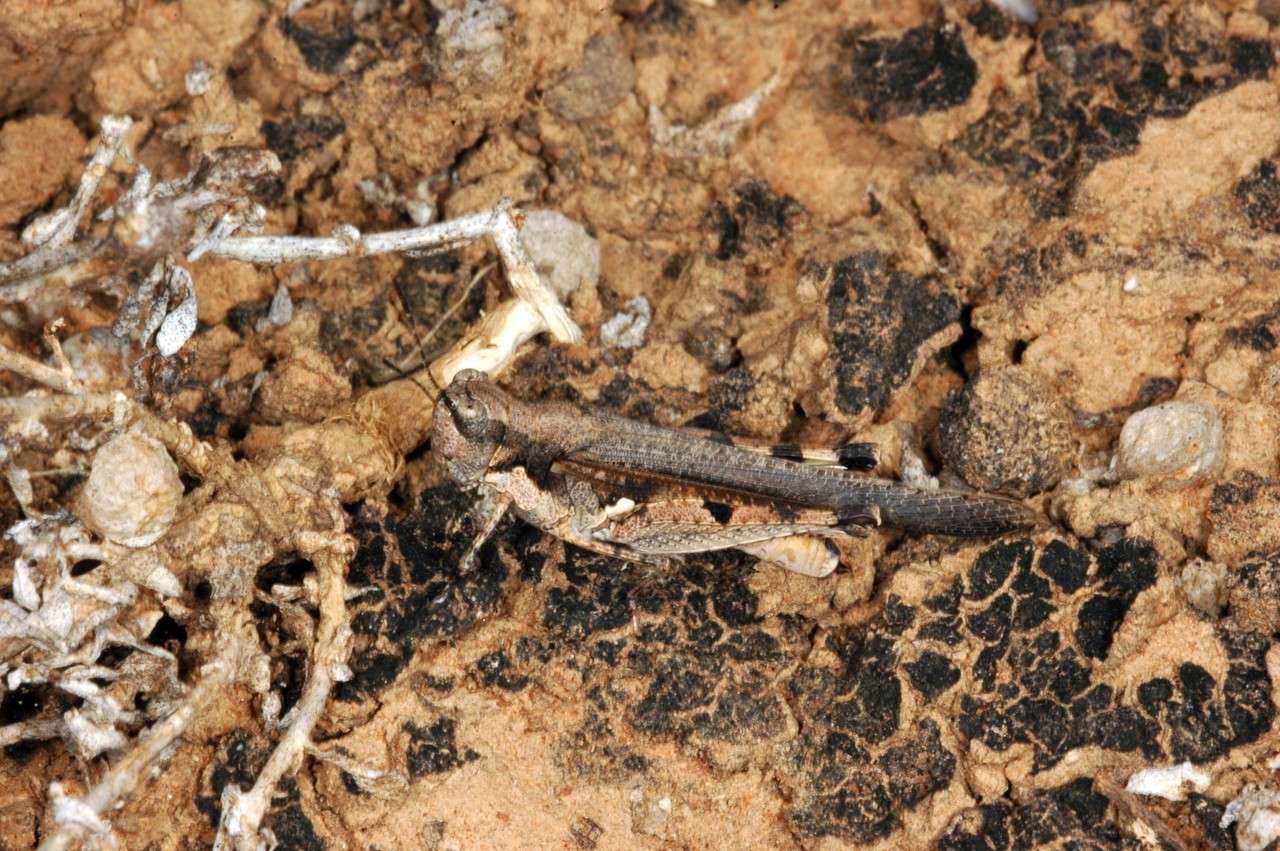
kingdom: Animalia
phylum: Arthropoda
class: Insecta
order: Orthoptera
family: Acrididae
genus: Pycnostictus
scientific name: Pycnostictus seriatus
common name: Common bandwing
